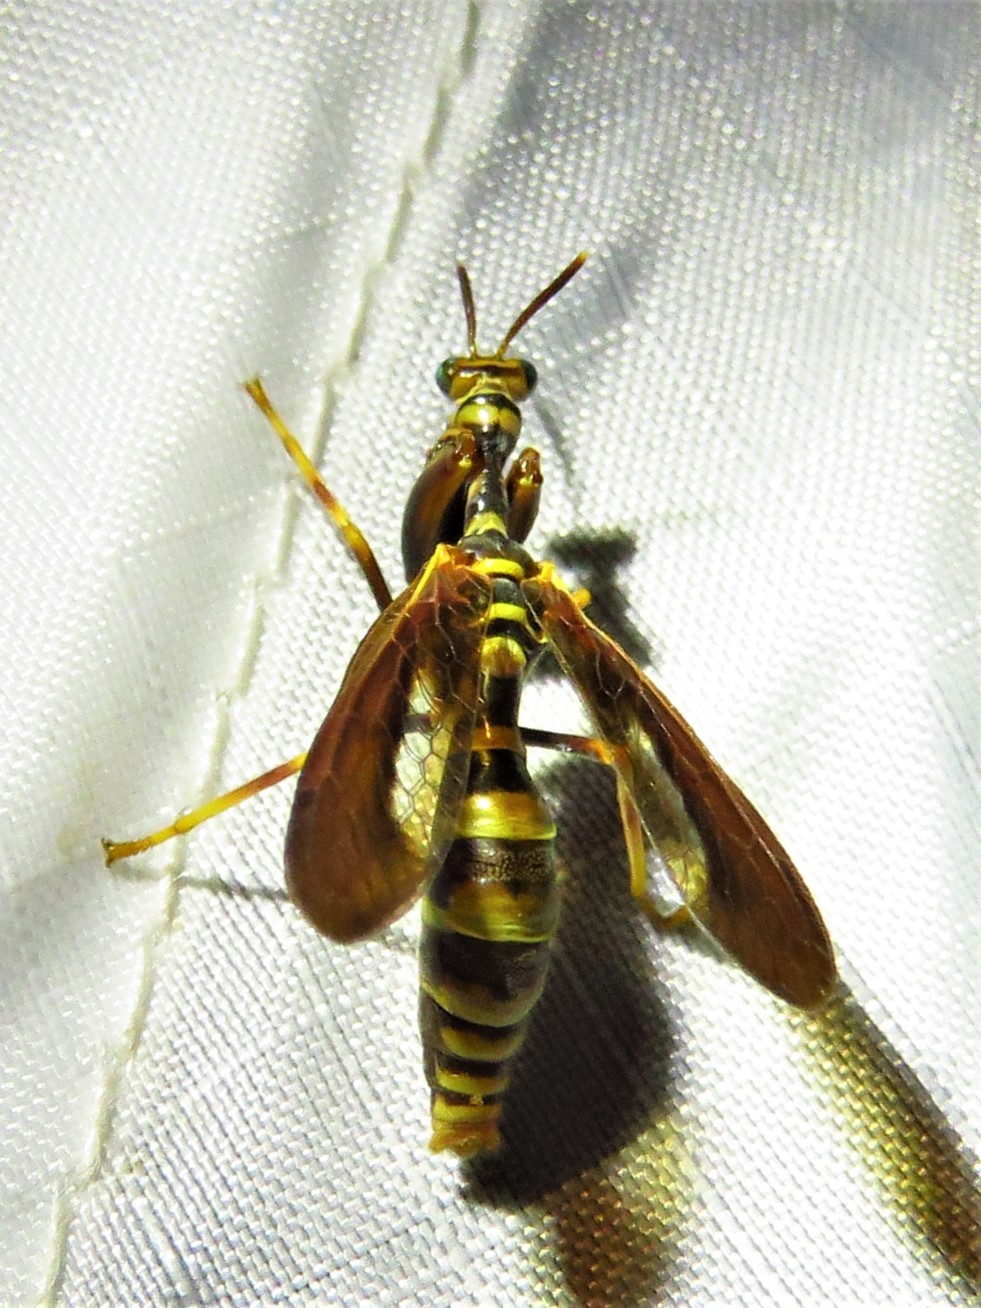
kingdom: Animalia
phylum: Arthropoda
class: Insecta
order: Neuroptera
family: Mantispidae
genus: Climaciella
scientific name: Climaciella brunnea
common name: Brown wasp mantidfly
